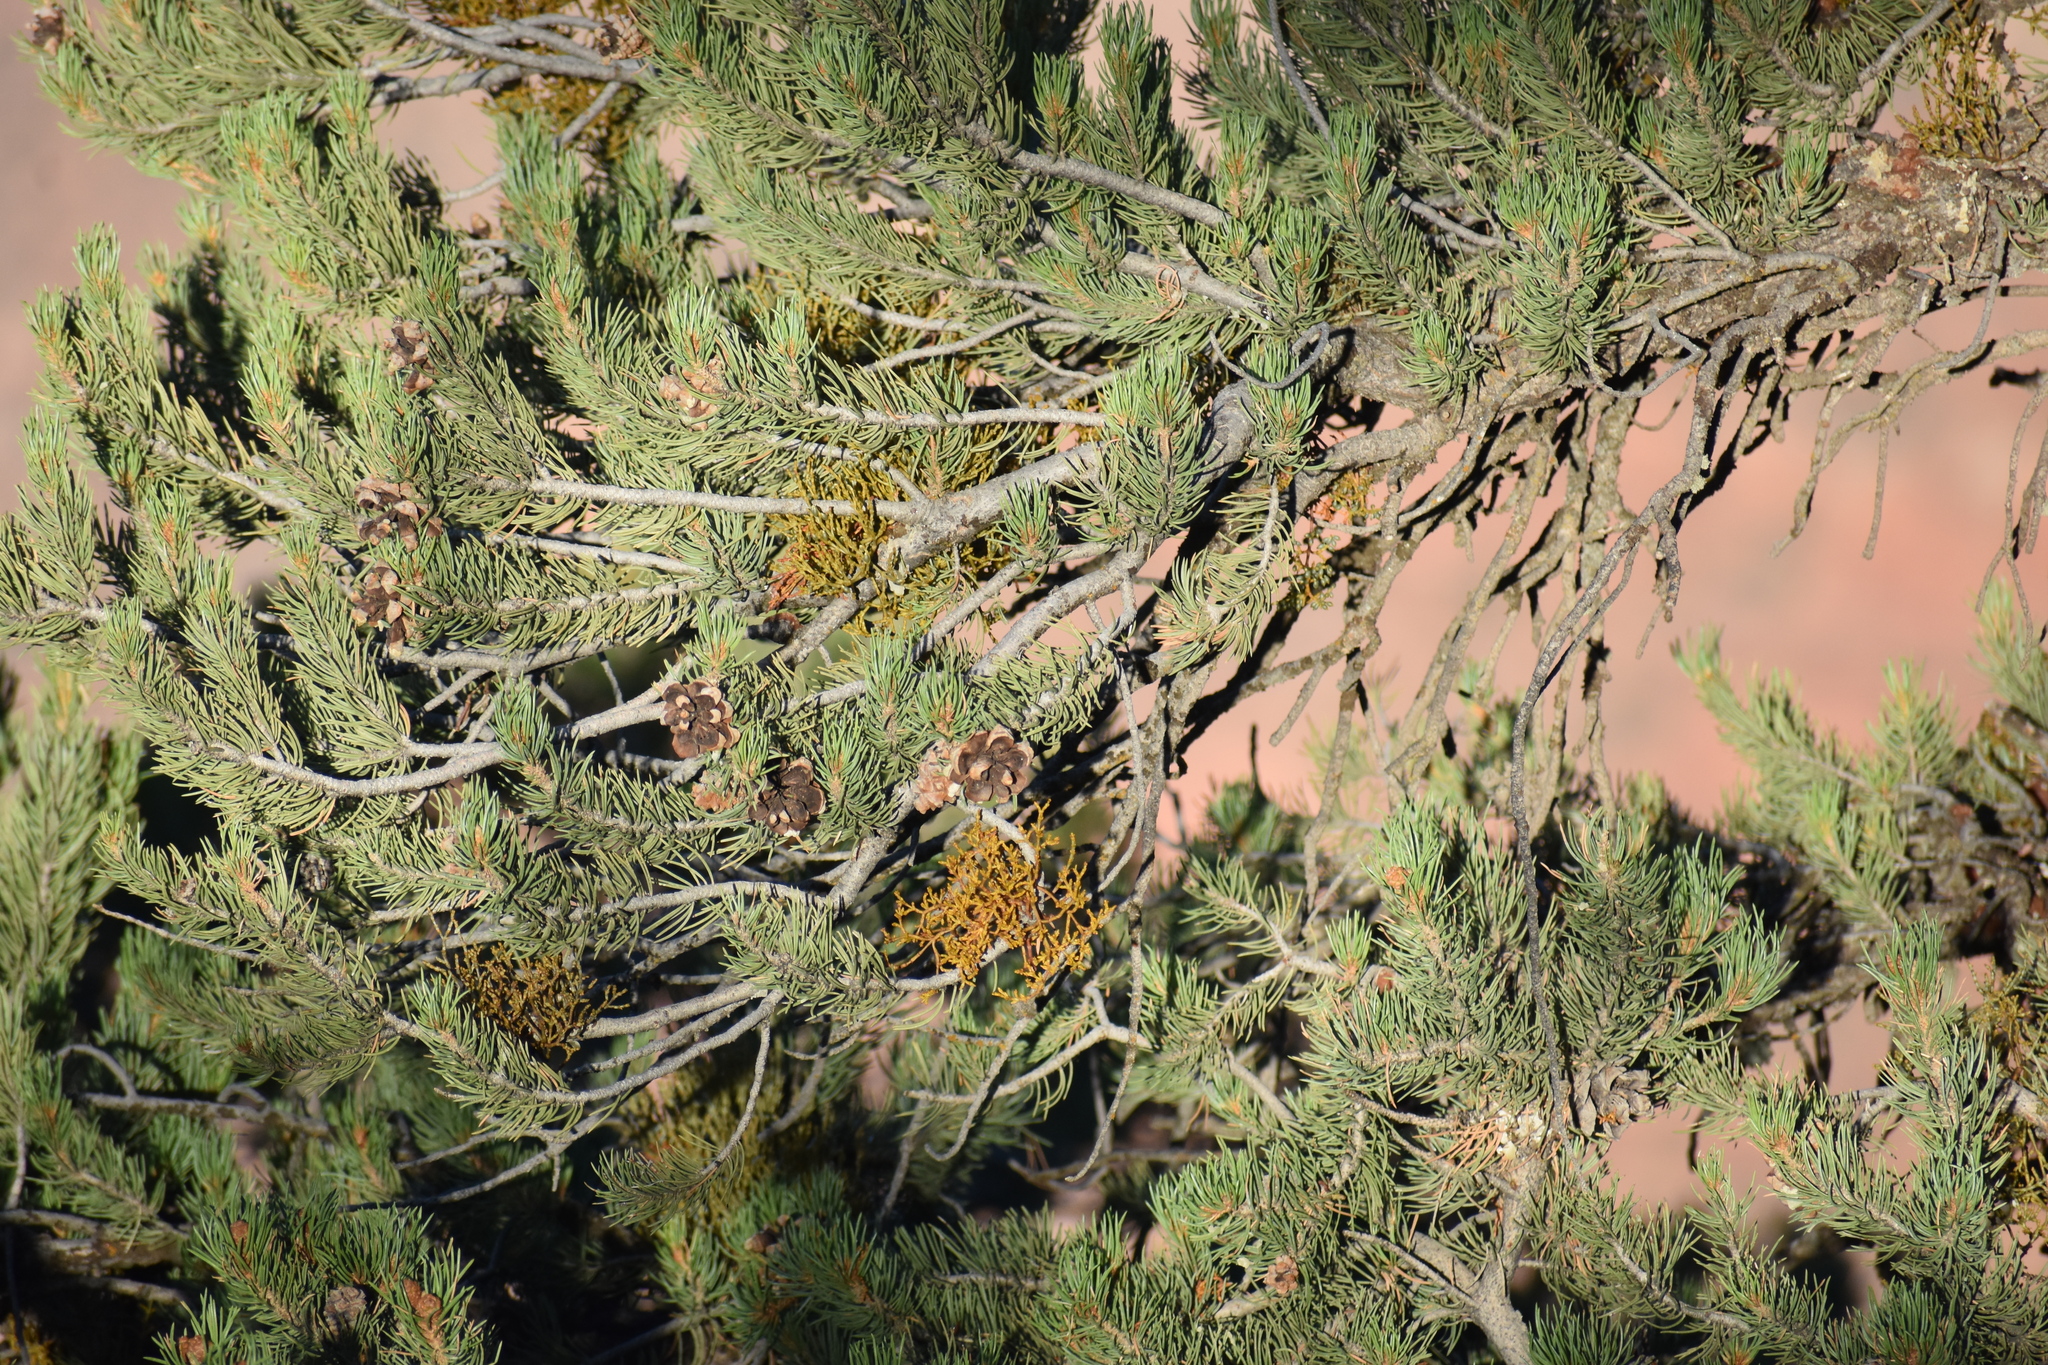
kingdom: Plantae
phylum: Tracheophyta
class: Magnoliopsida
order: Santalales
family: Viscaceae
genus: Arceuthobium
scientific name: Arceuthobium divaricatum
